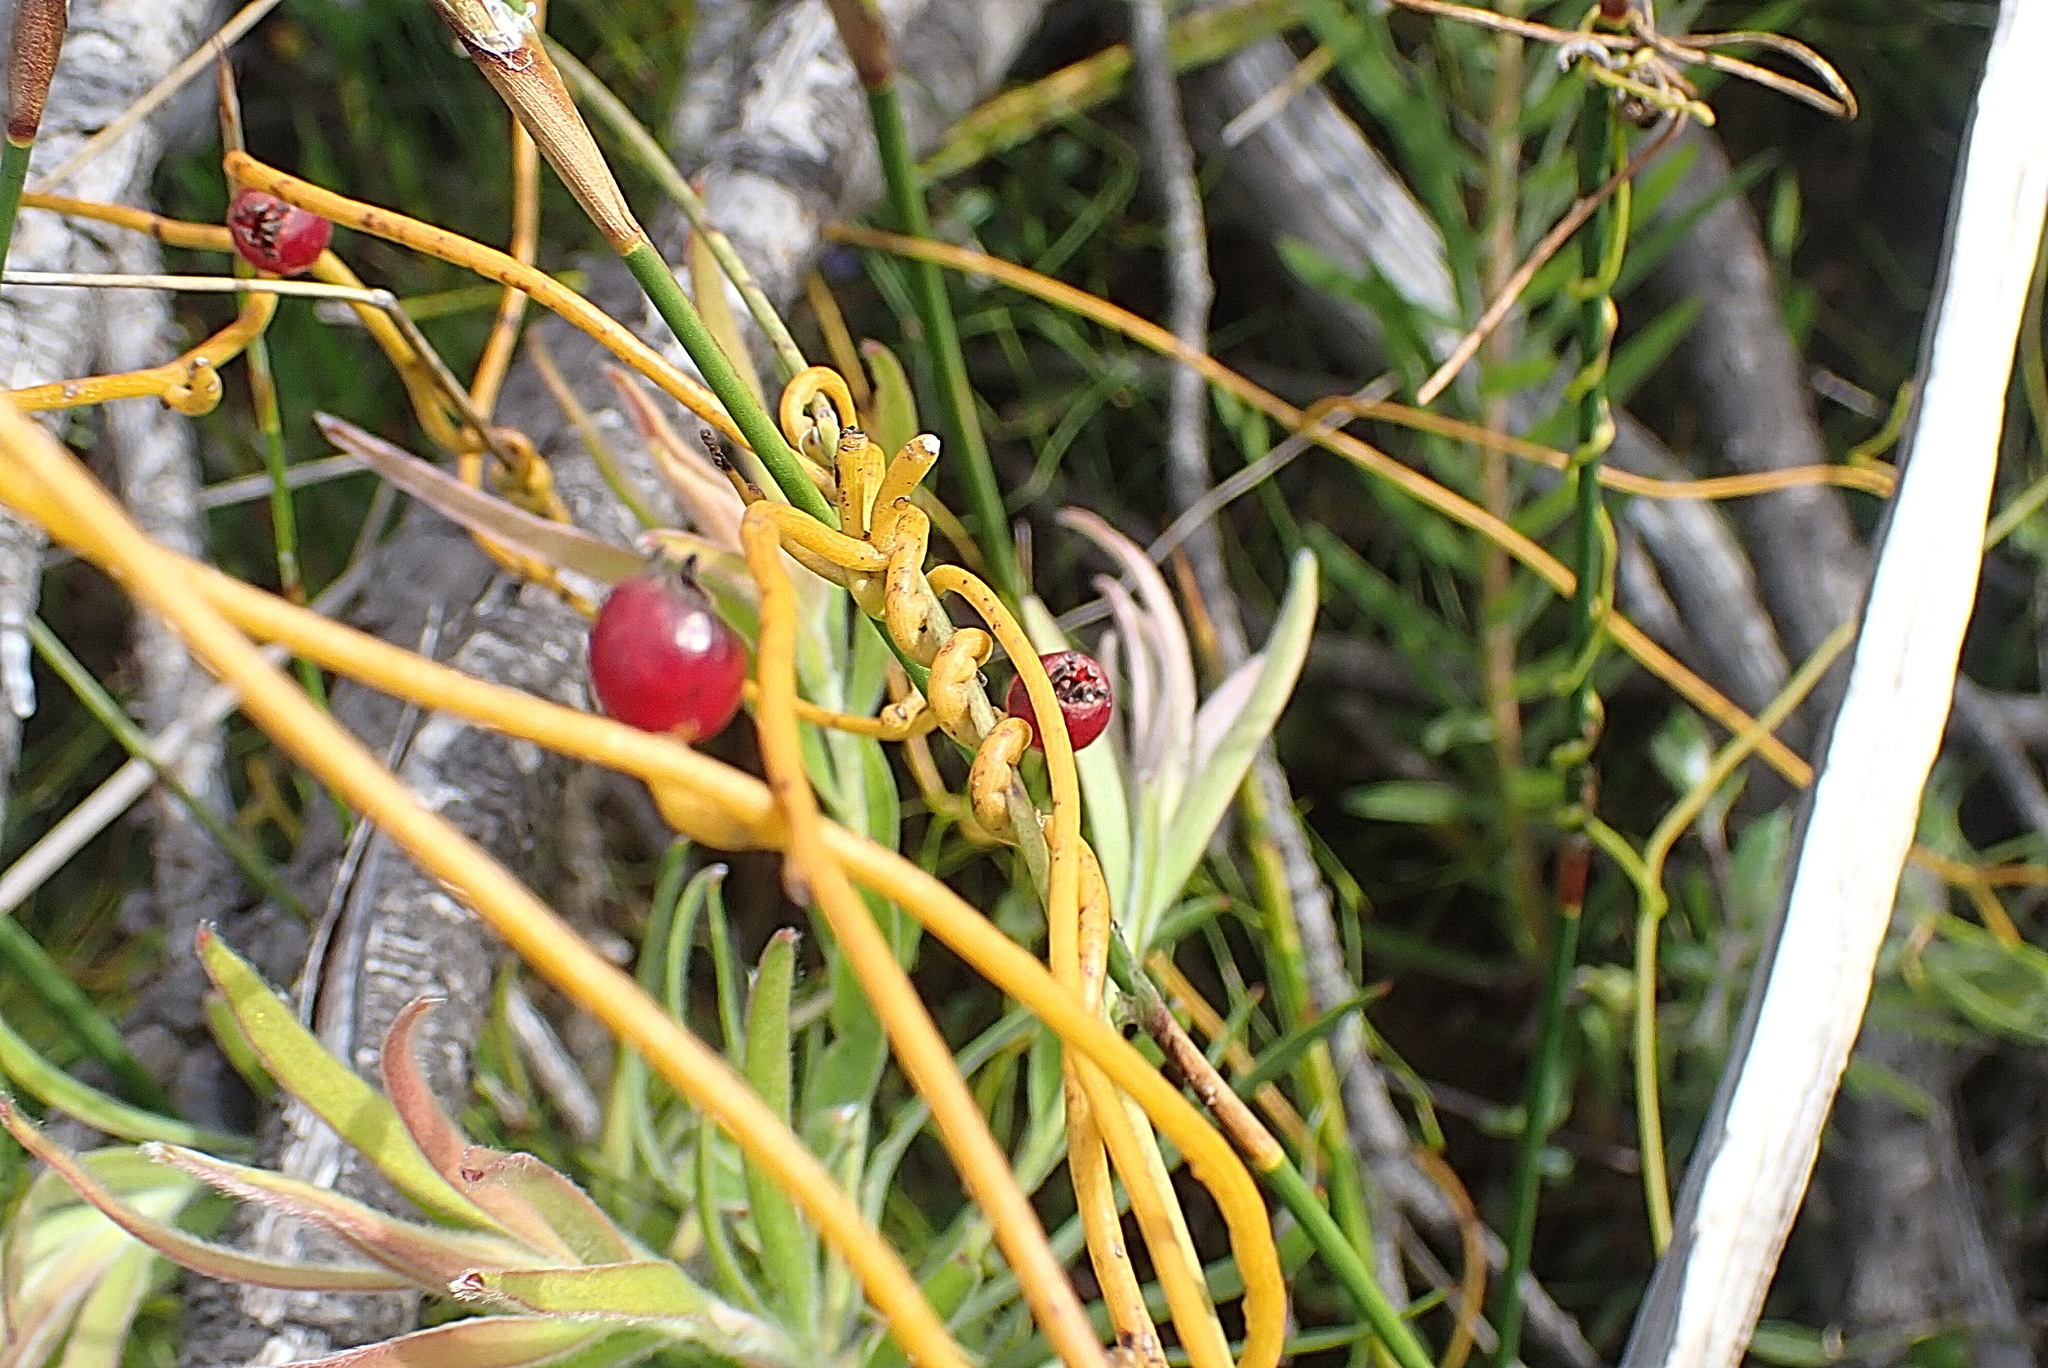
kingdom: Plantae
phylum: Tracheophyta
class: Magnoliopsida
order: Laurales
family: Lauraceae
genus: Cassytha
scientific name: Cassytha ciliolata
